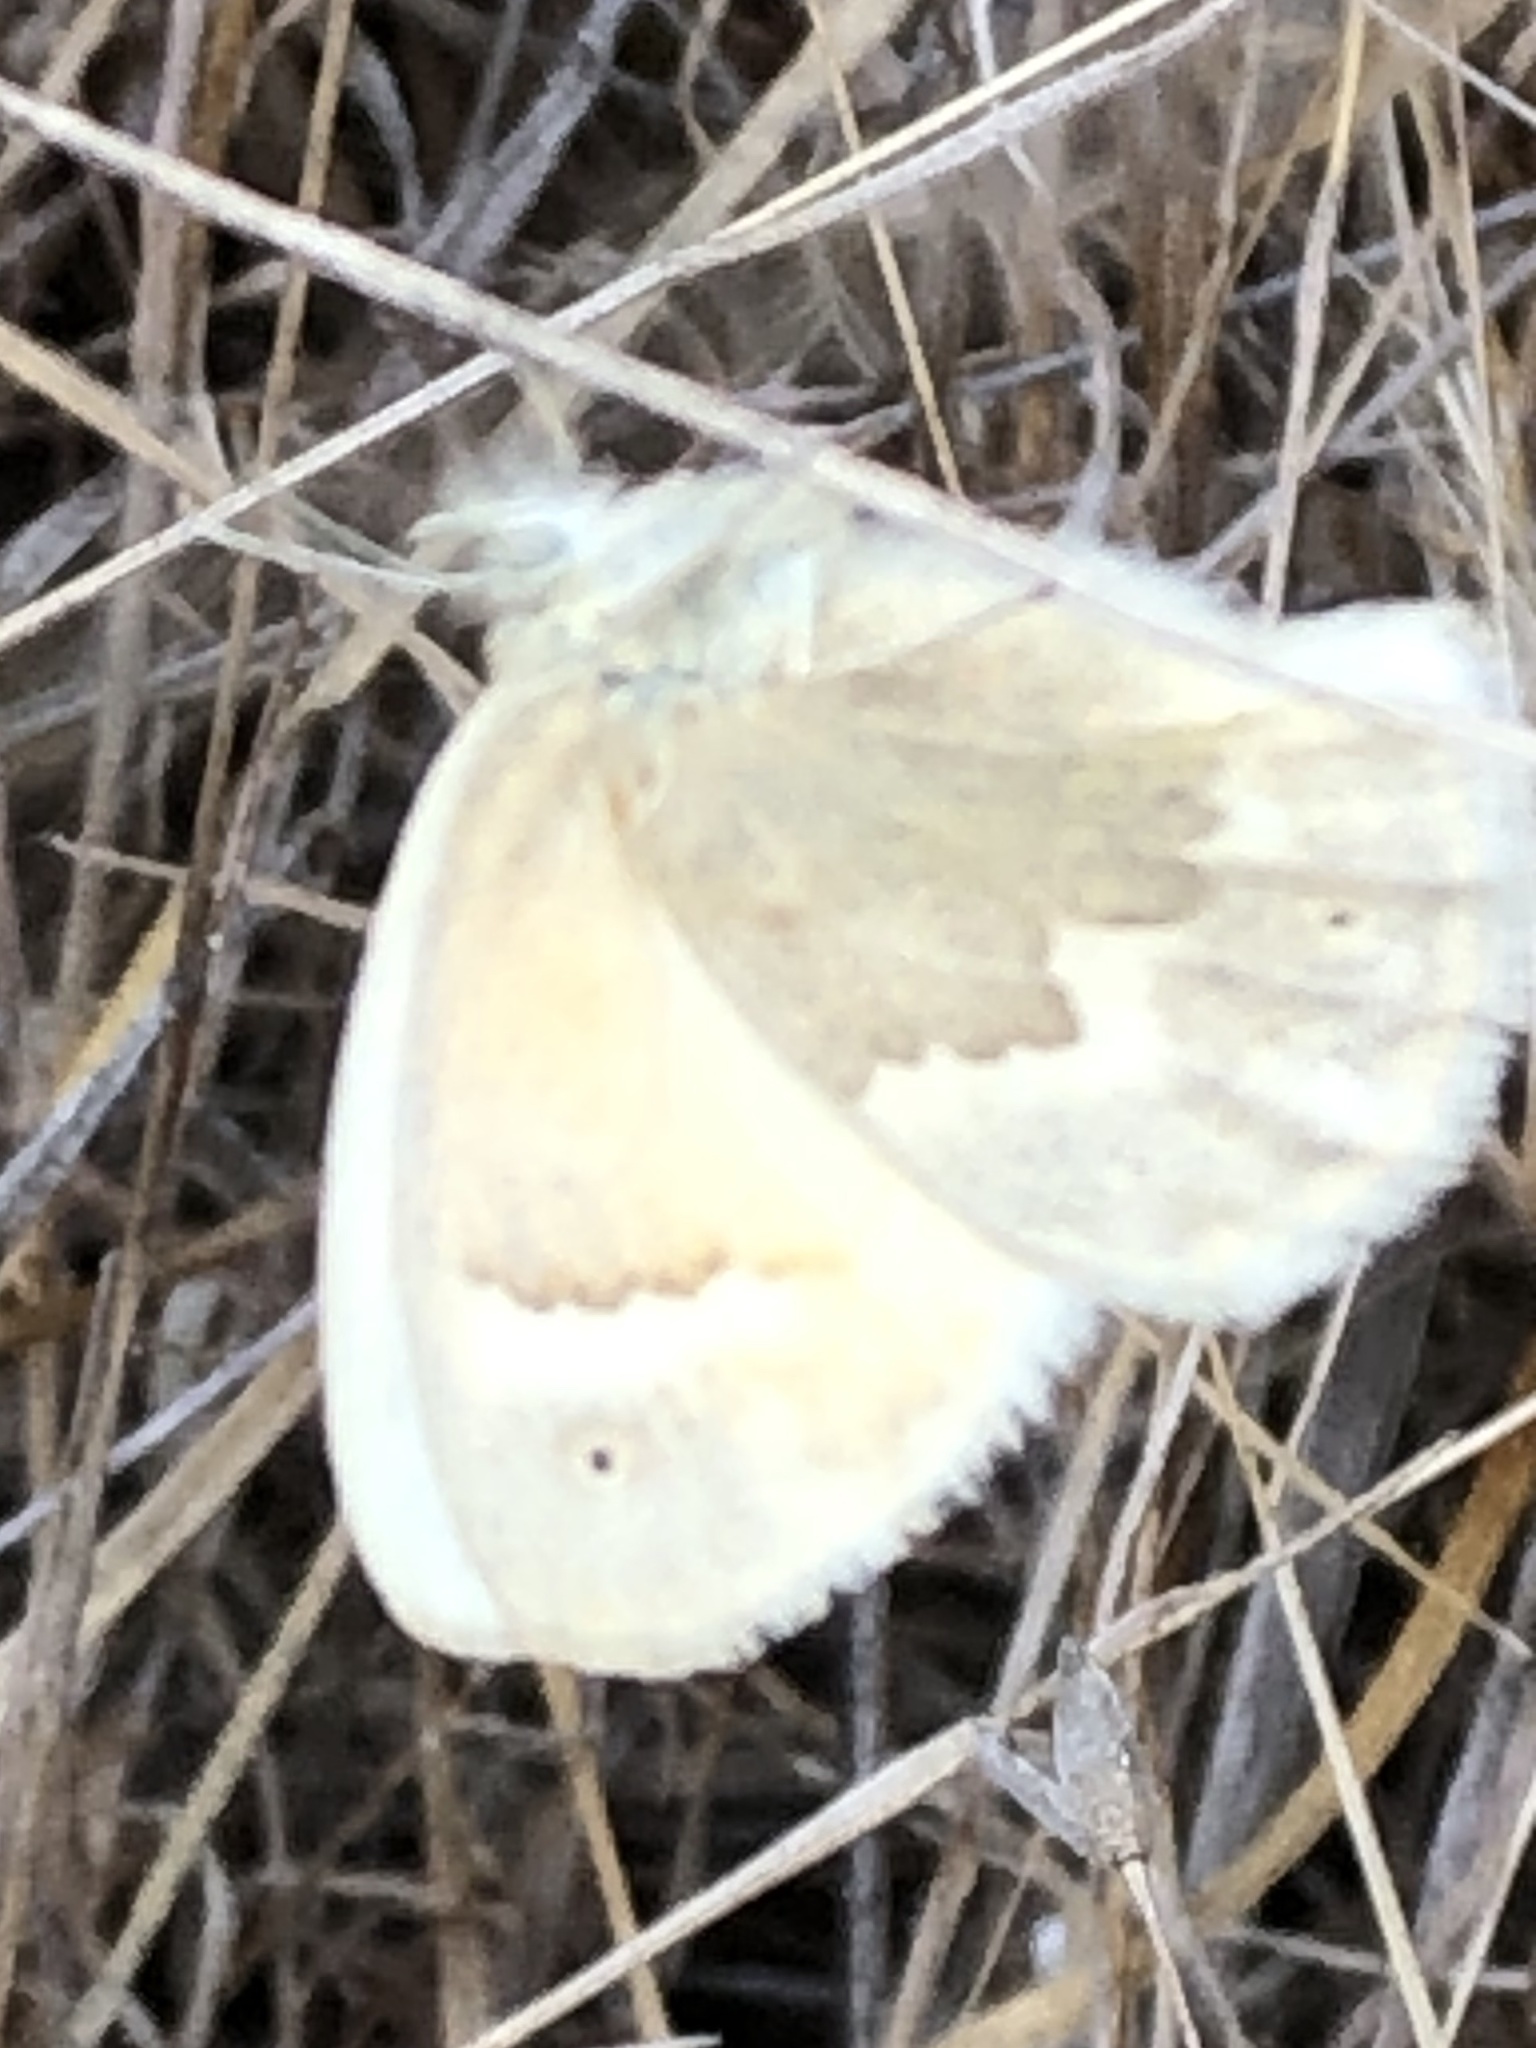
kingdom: Animalia
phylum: Arthropoda
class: Insecta
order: Lepidoptera
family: Nymphalidae
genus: Coenonympha
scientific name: Coenonympha california
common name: Common ringlet
